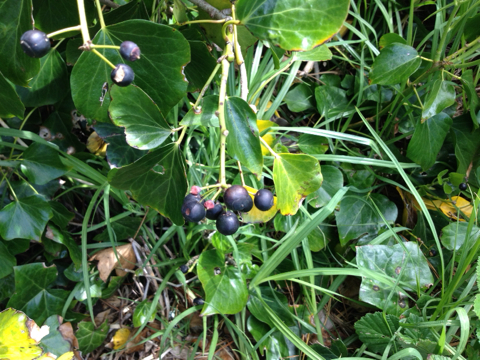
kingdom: Plantae
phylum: Tracheophyta
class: Magnoliopsida
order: Apiales
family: Araliaceae
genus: Hedera
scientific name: Hedera helix
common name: Ivy
